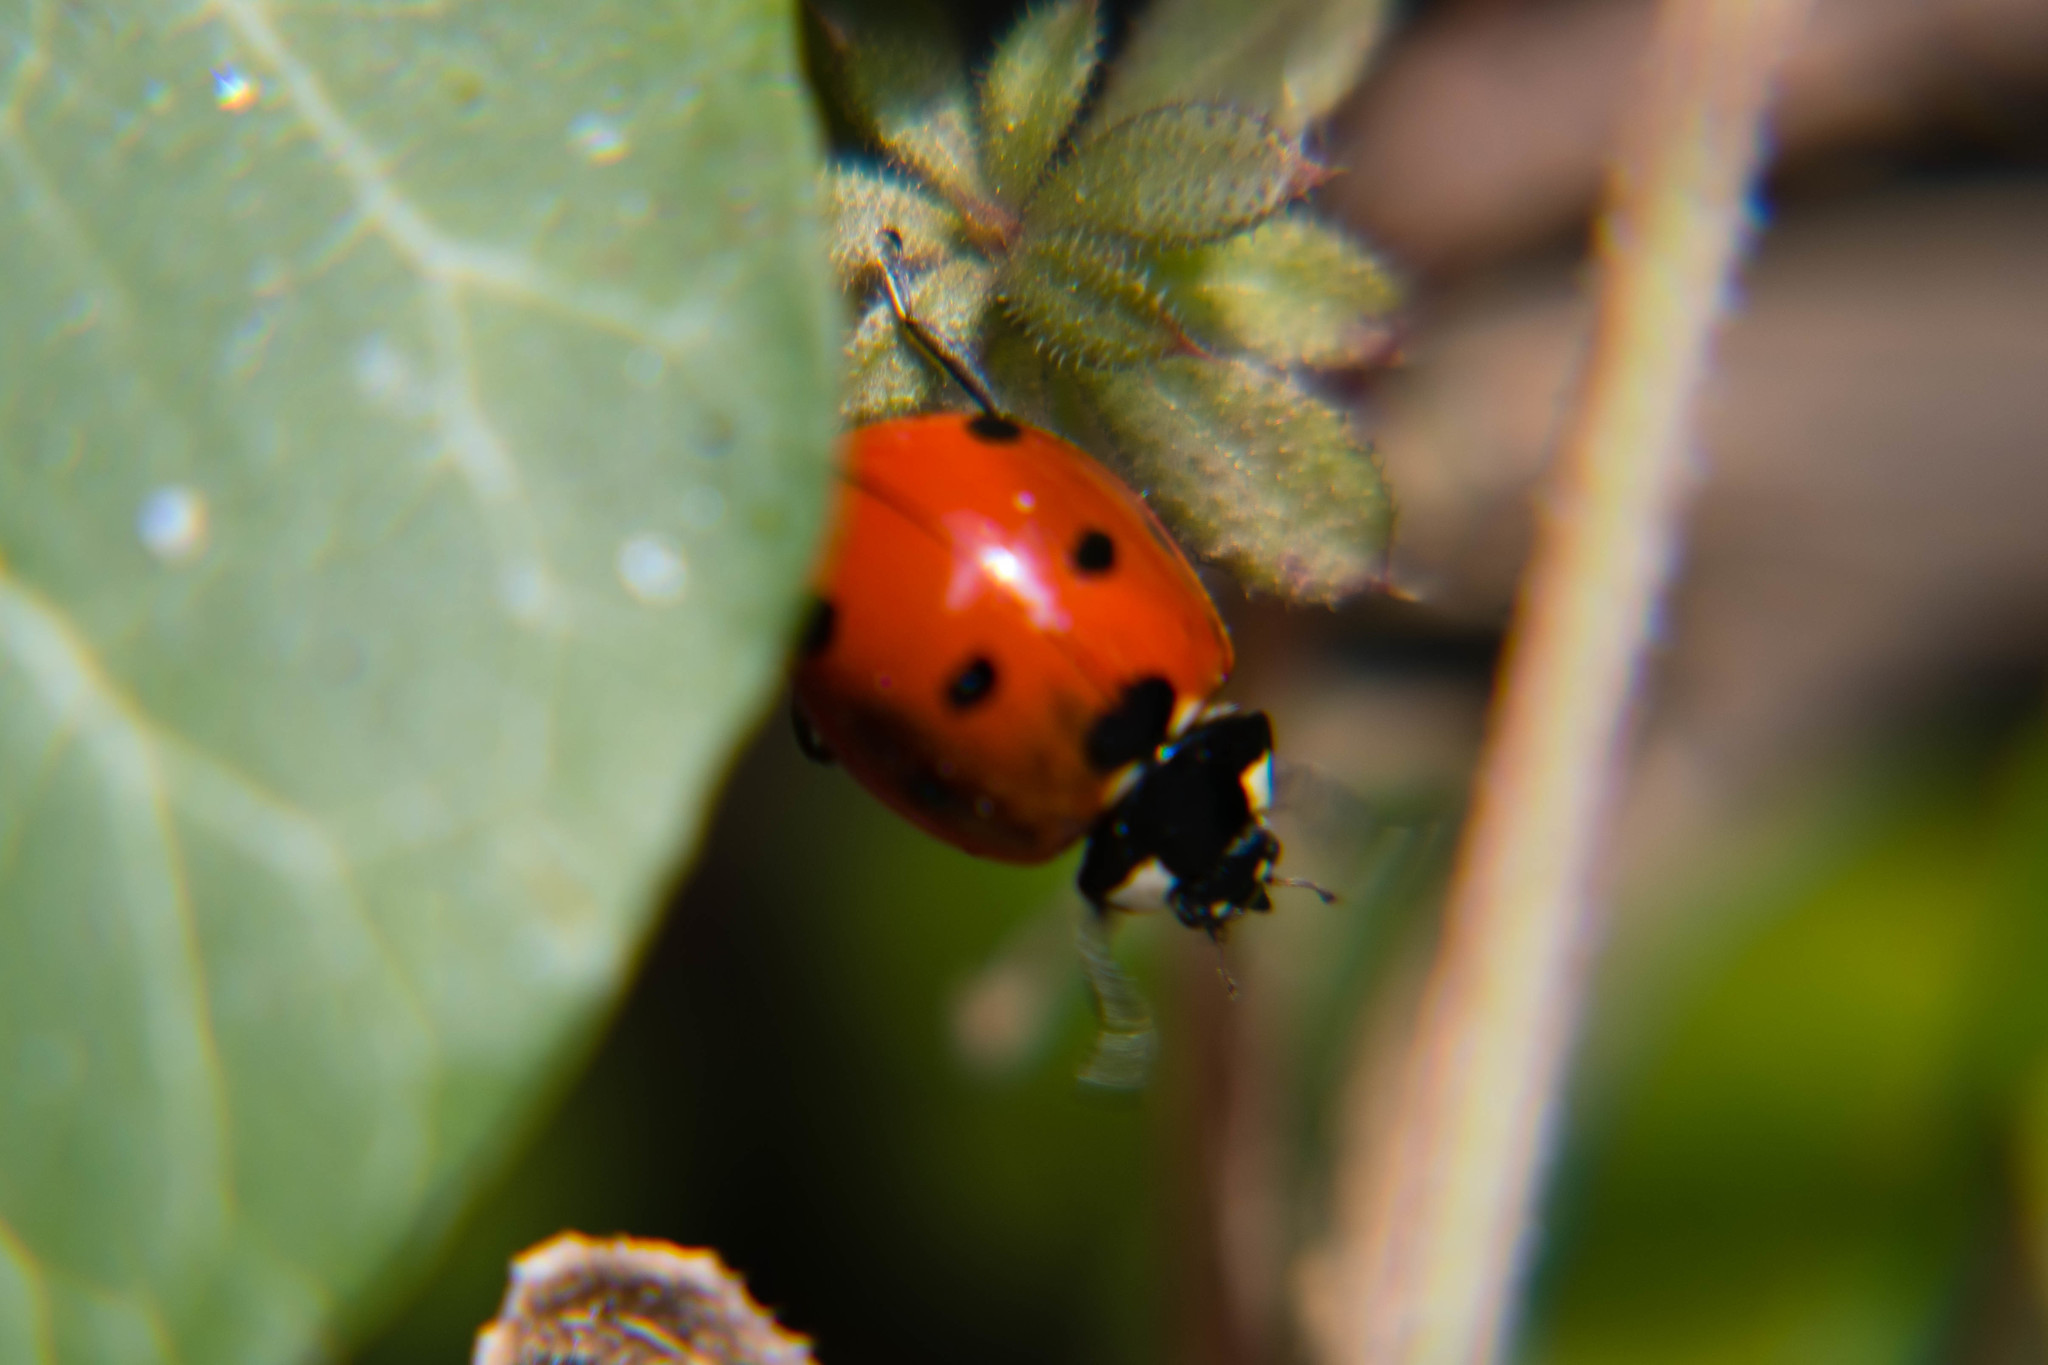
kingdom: Animalia
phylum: Arthropoda
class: Insecta
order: Coleoptera
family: Coccinellidae
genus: Coccinella
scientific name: Coccinella septempunctata
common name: Sevenspotted lady beetle
